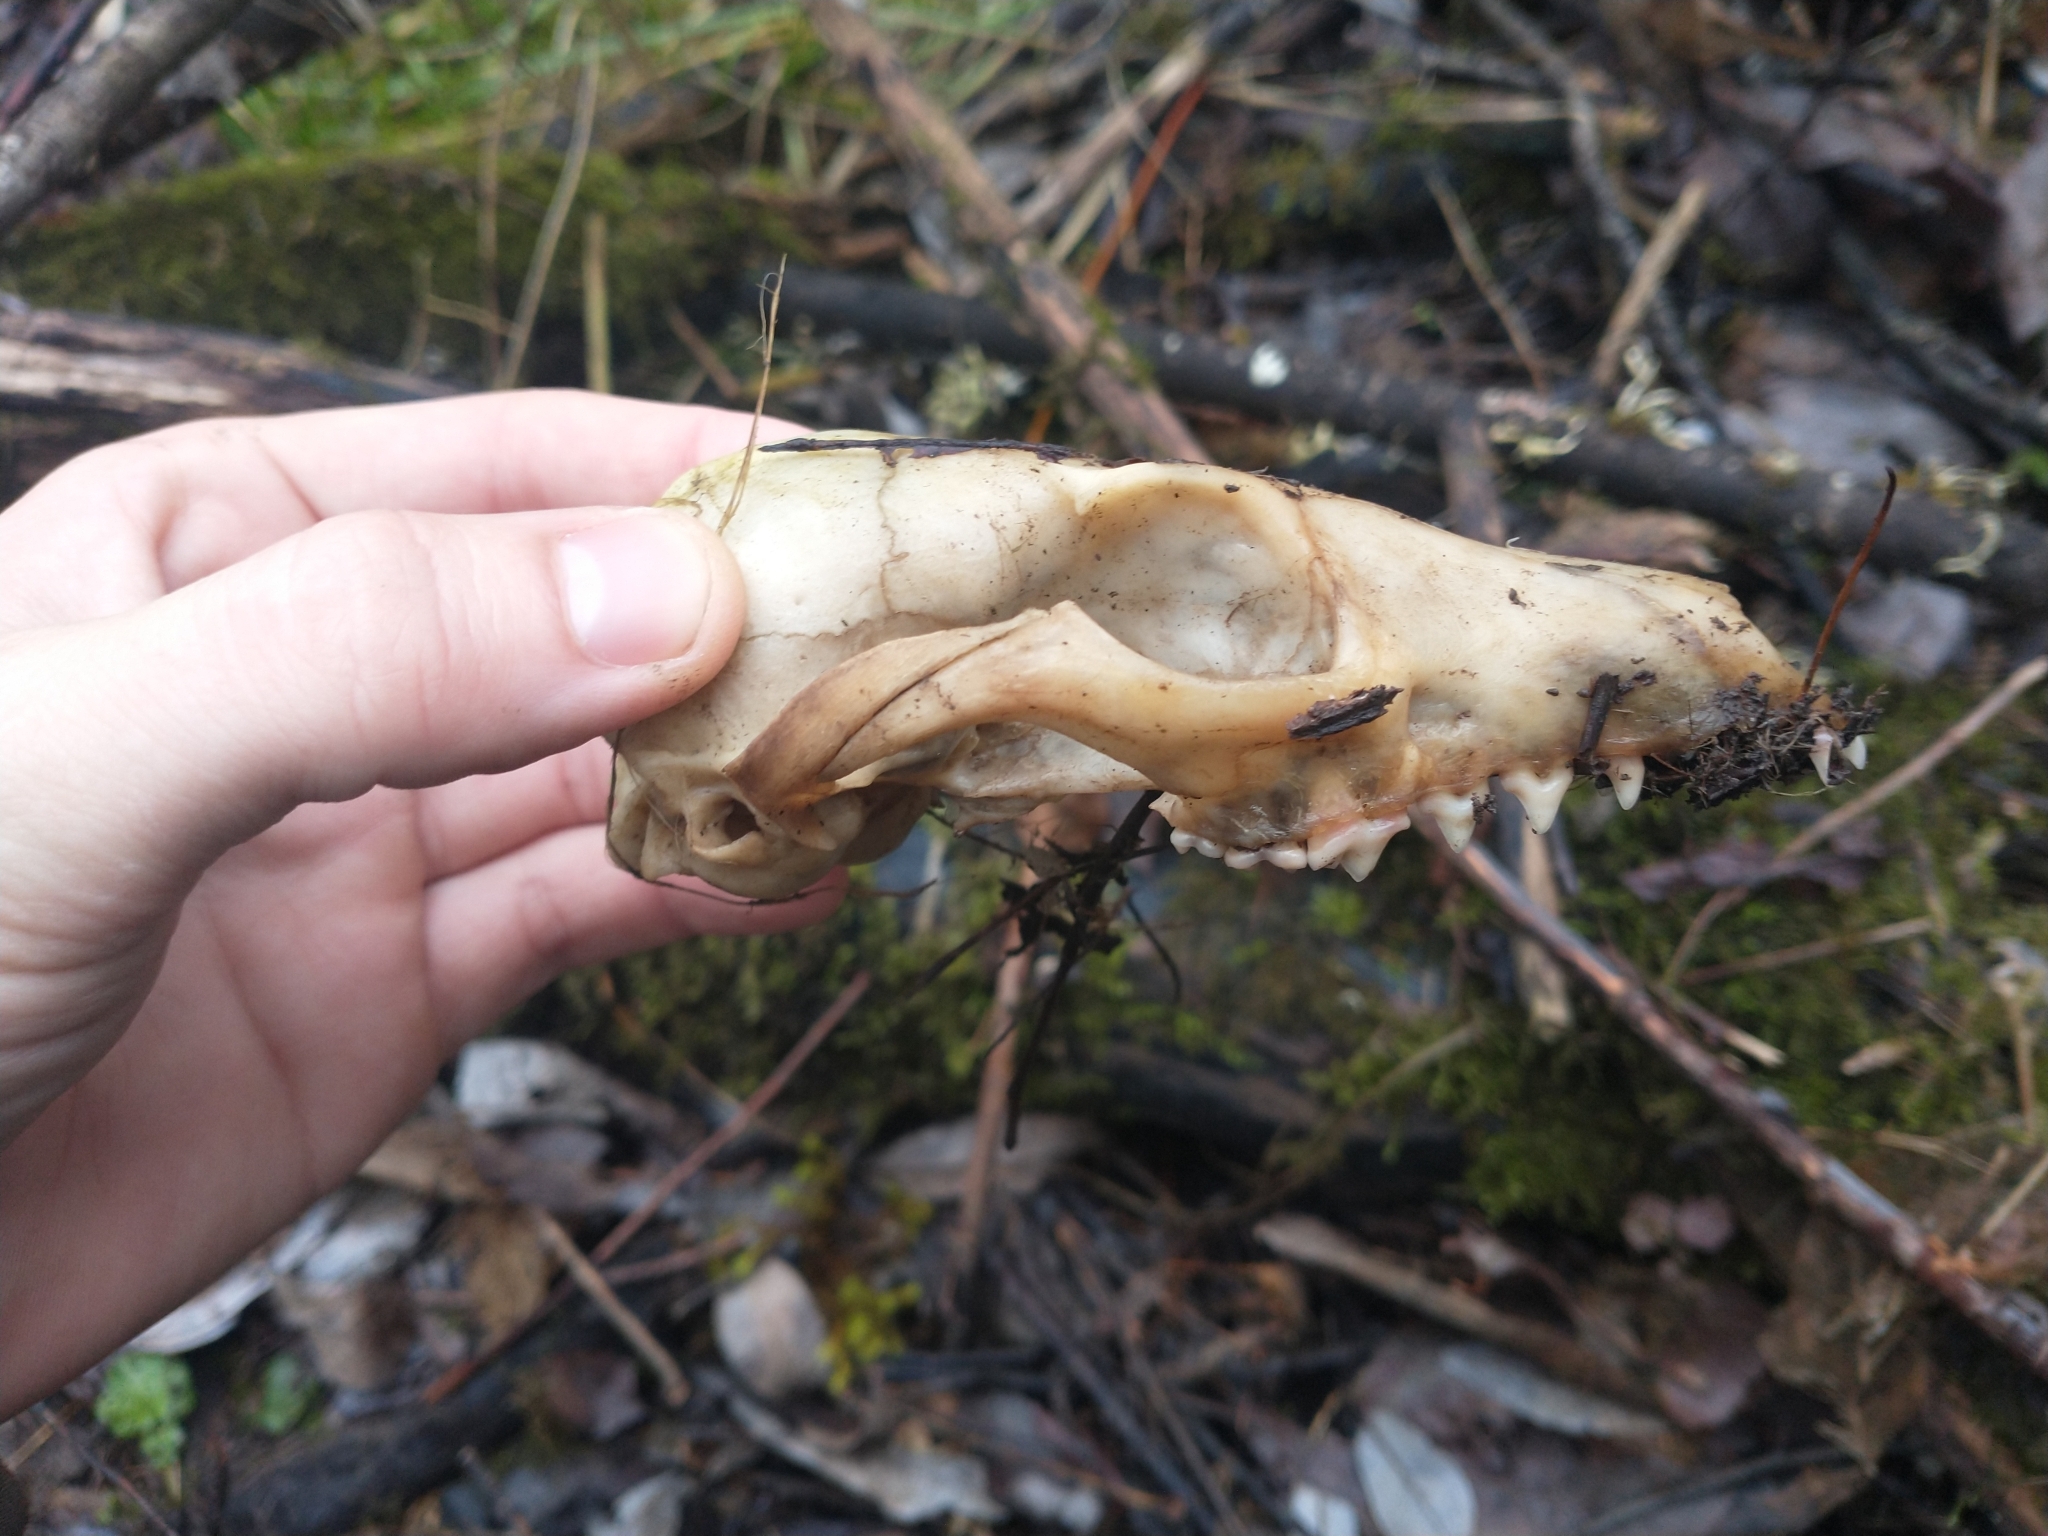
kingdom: Animalia
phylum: Chordata
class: Mammalia
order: Carnivora
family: Canidae
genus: Urocyon
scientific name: Urocyon cinereoargenteus
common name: Gray fox
